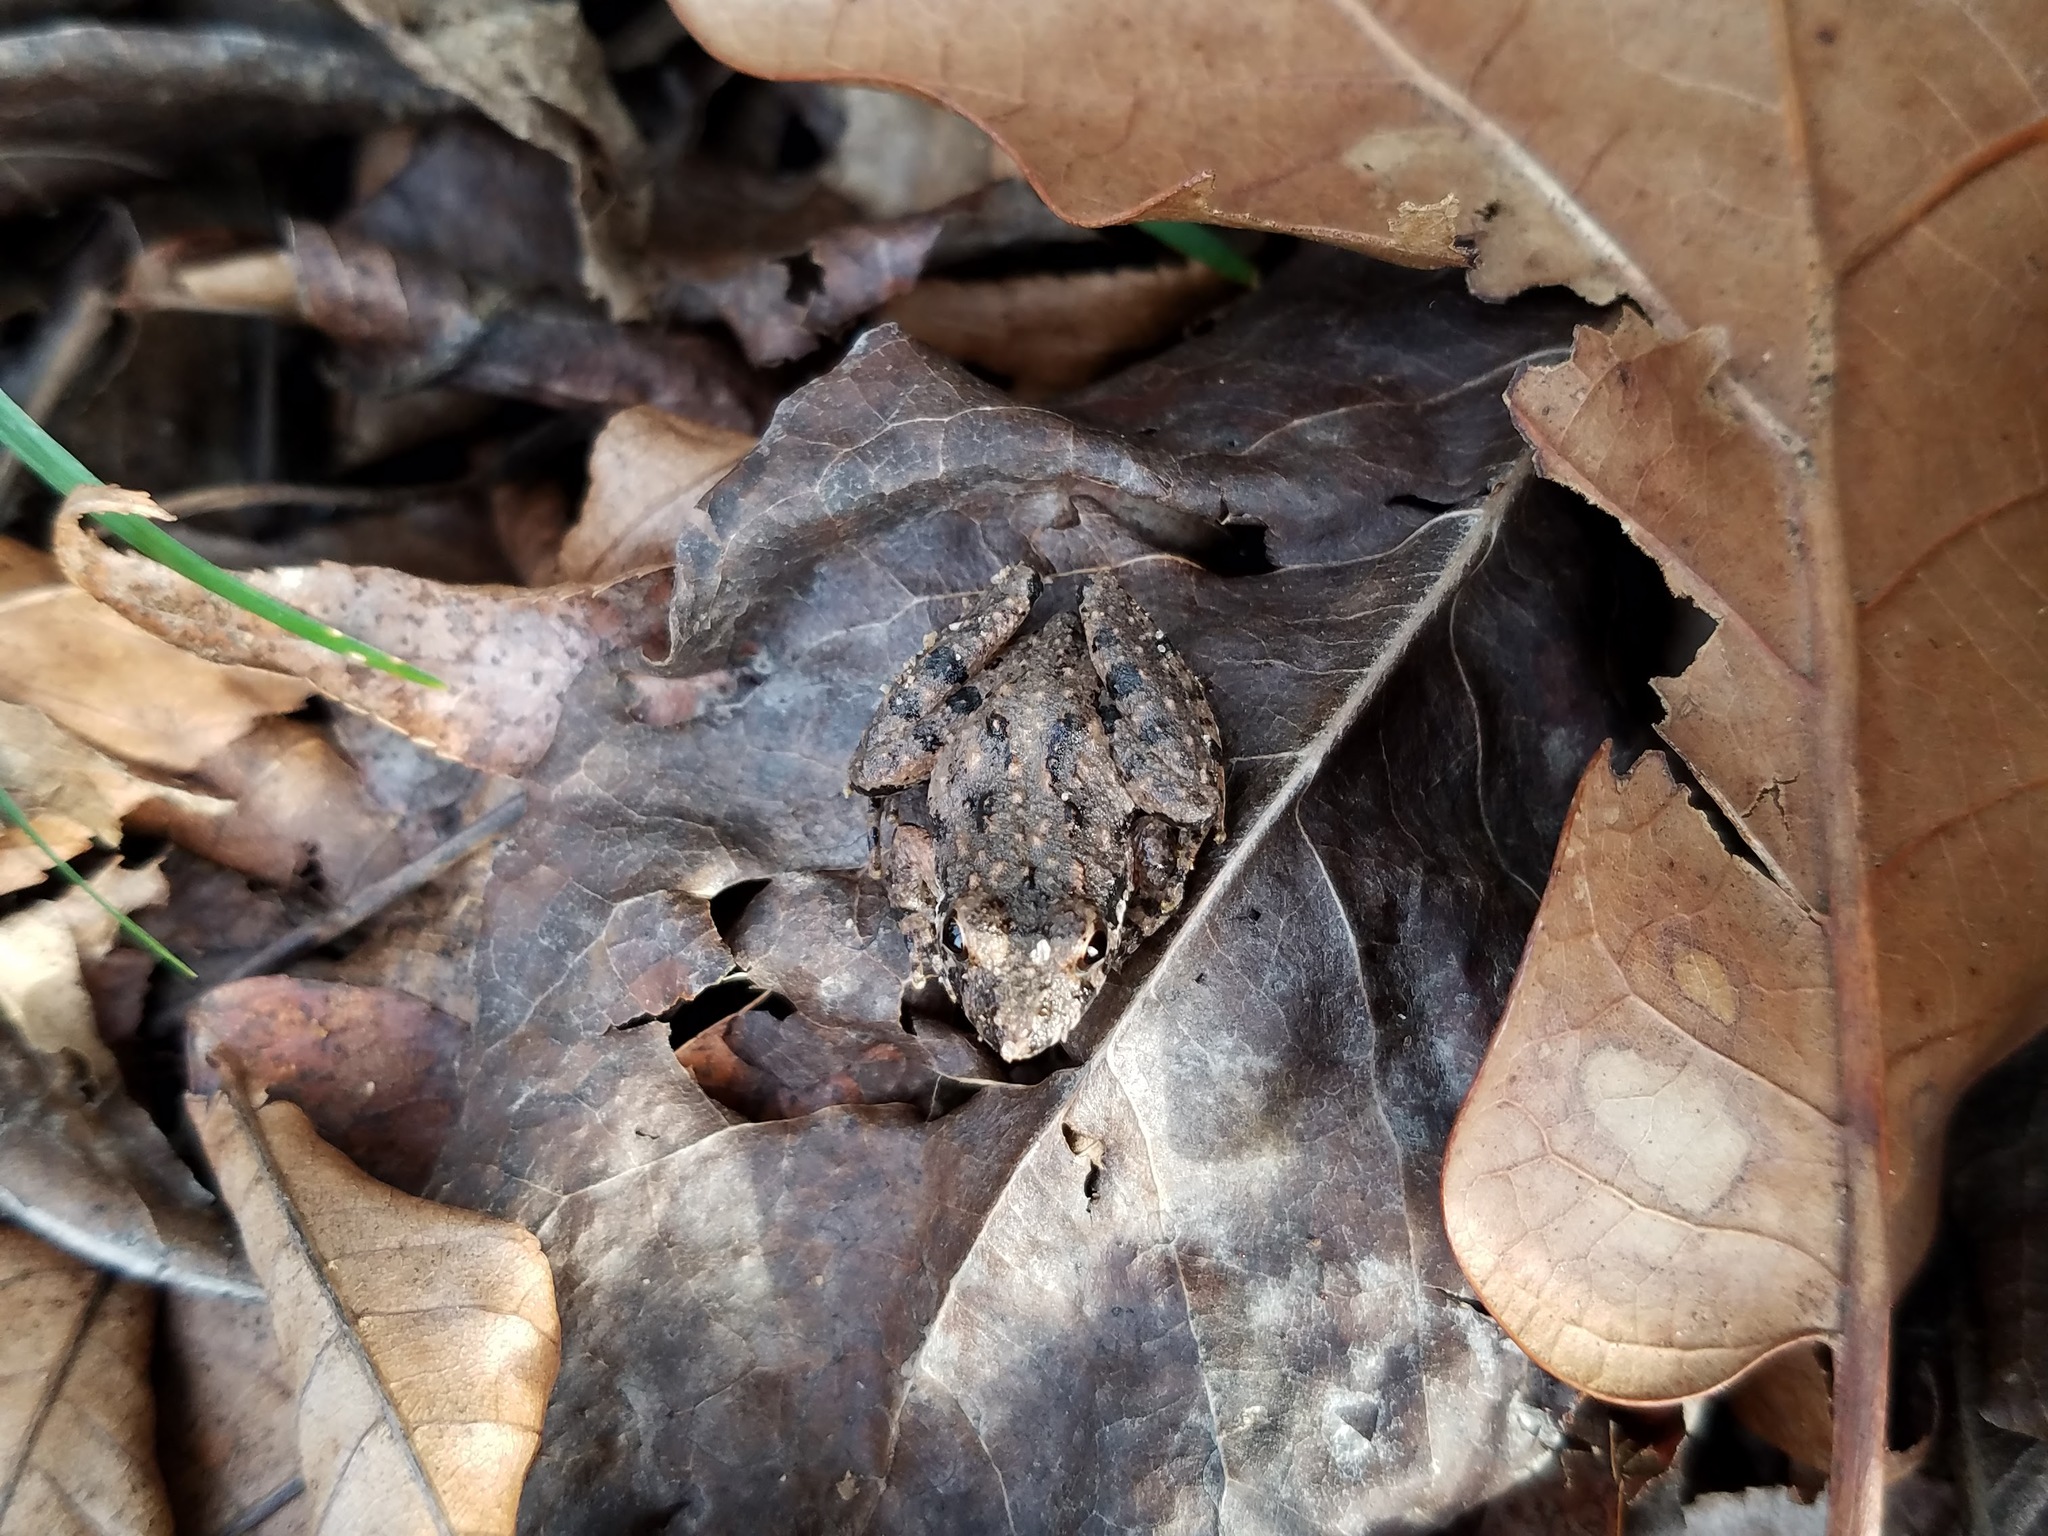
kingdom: Animalia
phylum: Chordata
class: Amphibia
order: Anura
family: Hylidae
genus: Acris
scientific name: Acris crepitans
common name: Northern cricket frog
